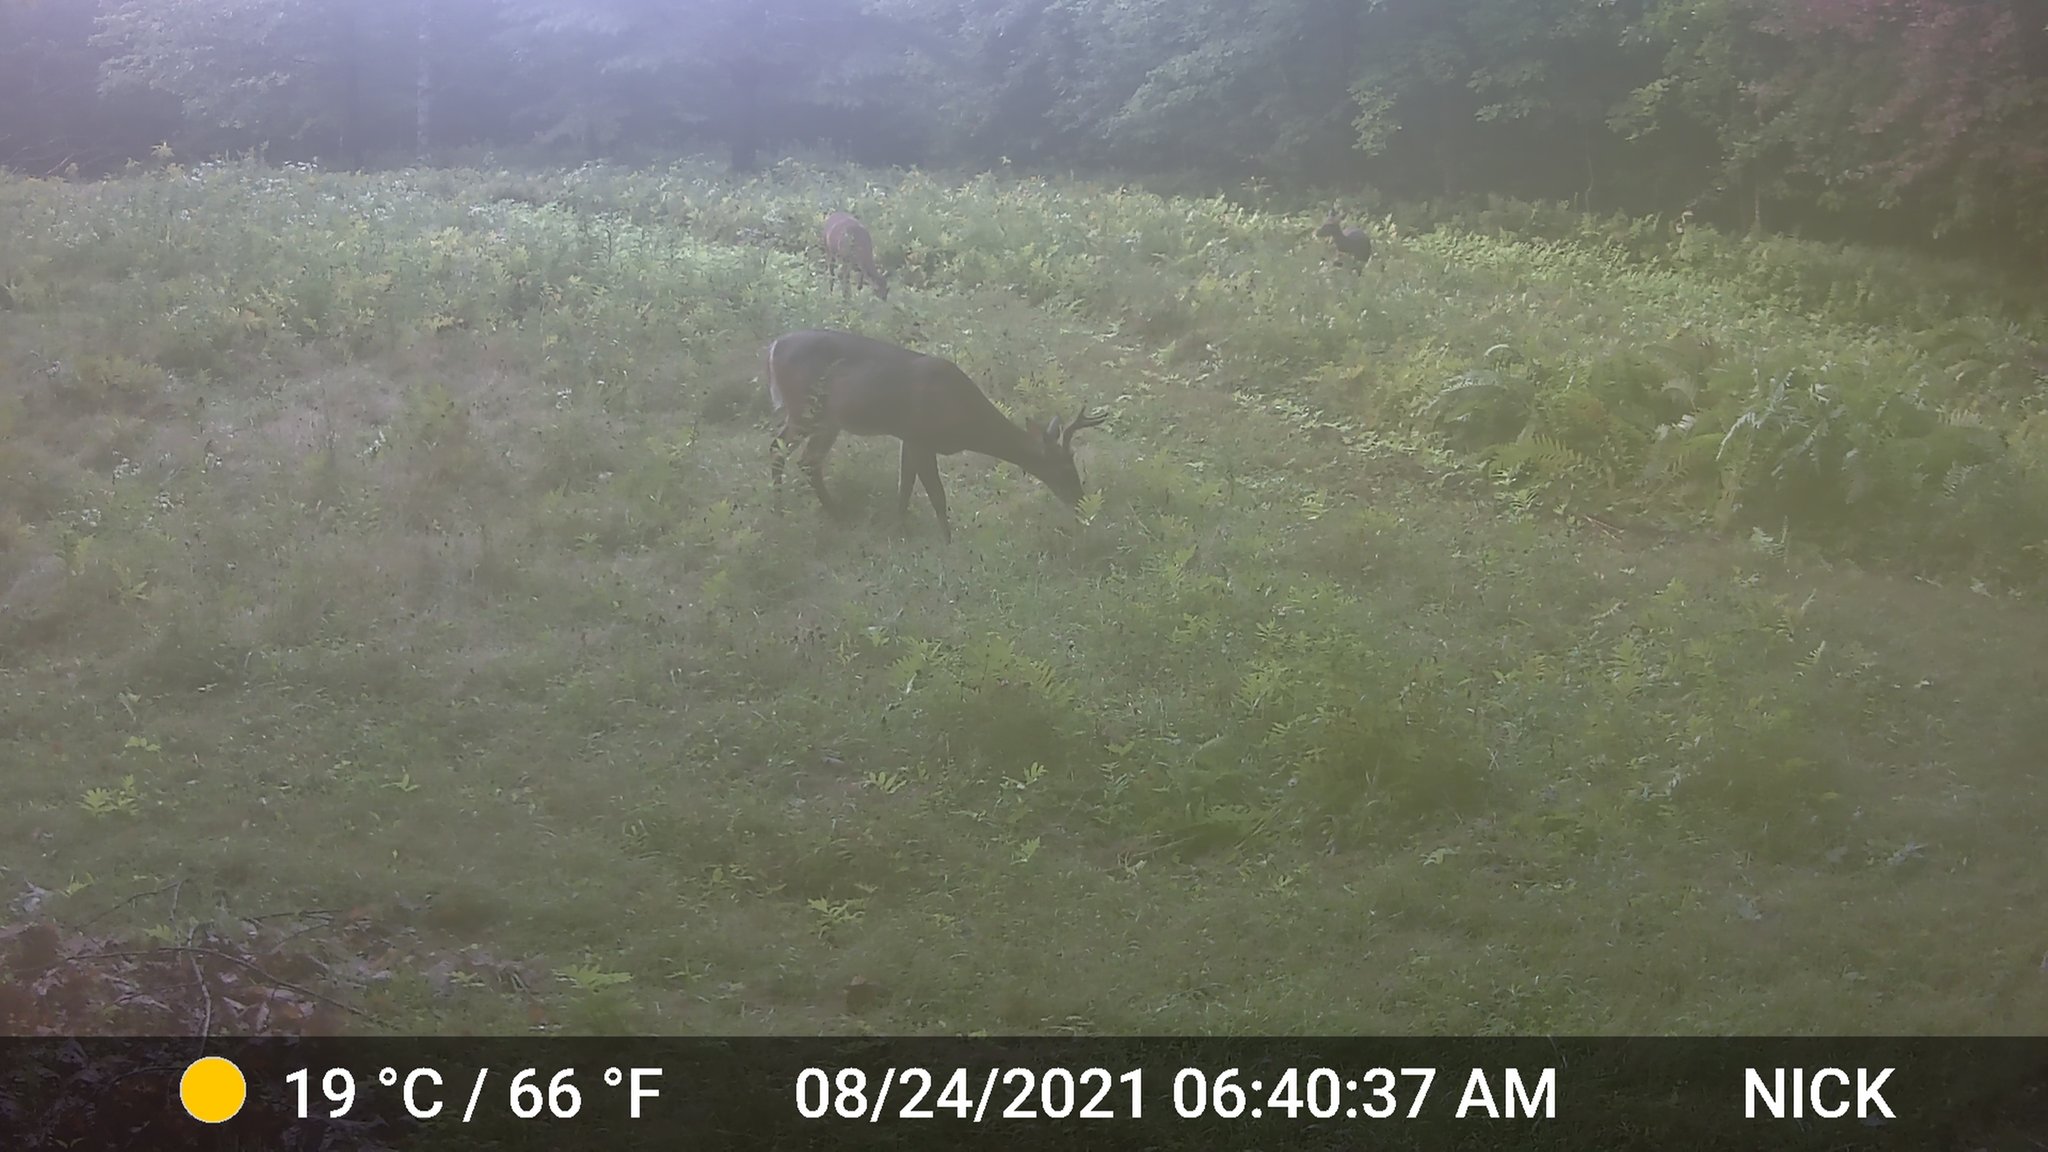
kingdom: Animalia
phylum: Chordata
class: Mammalia
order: Artiodactyla
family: Cervidae
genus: Odocoileus
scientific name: Odocoileus virginianus
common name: White-tailed deer
